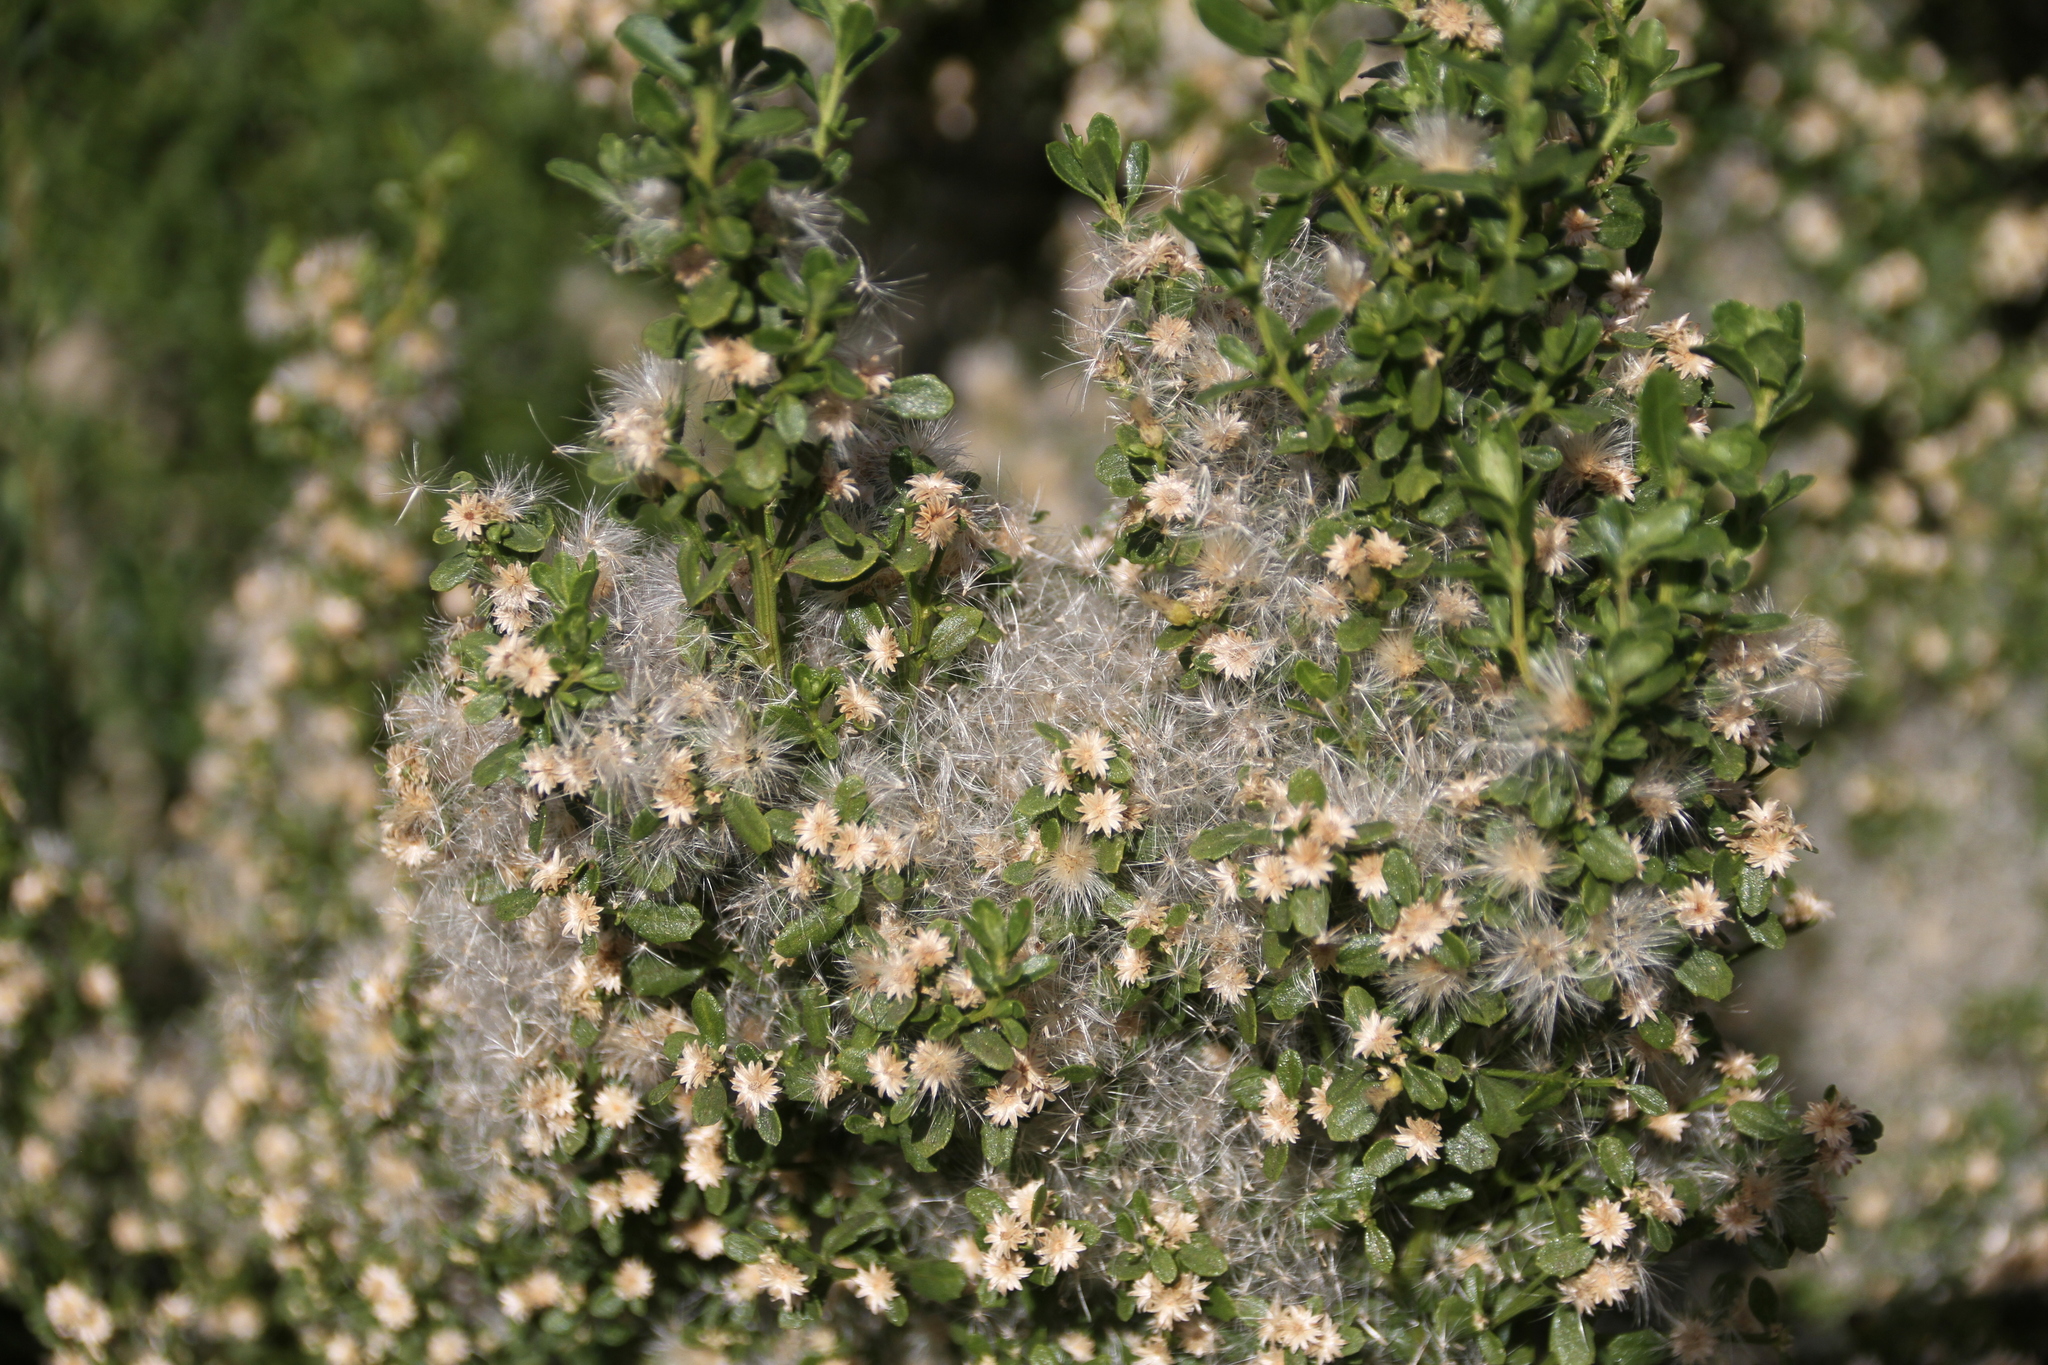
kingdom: Plantae
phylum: Tracheophyta
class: Magnoliopsida
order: Asterales
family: Asteraceae
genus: Baccharis
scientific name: Baccharis pilularis
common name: Coyotebrush
